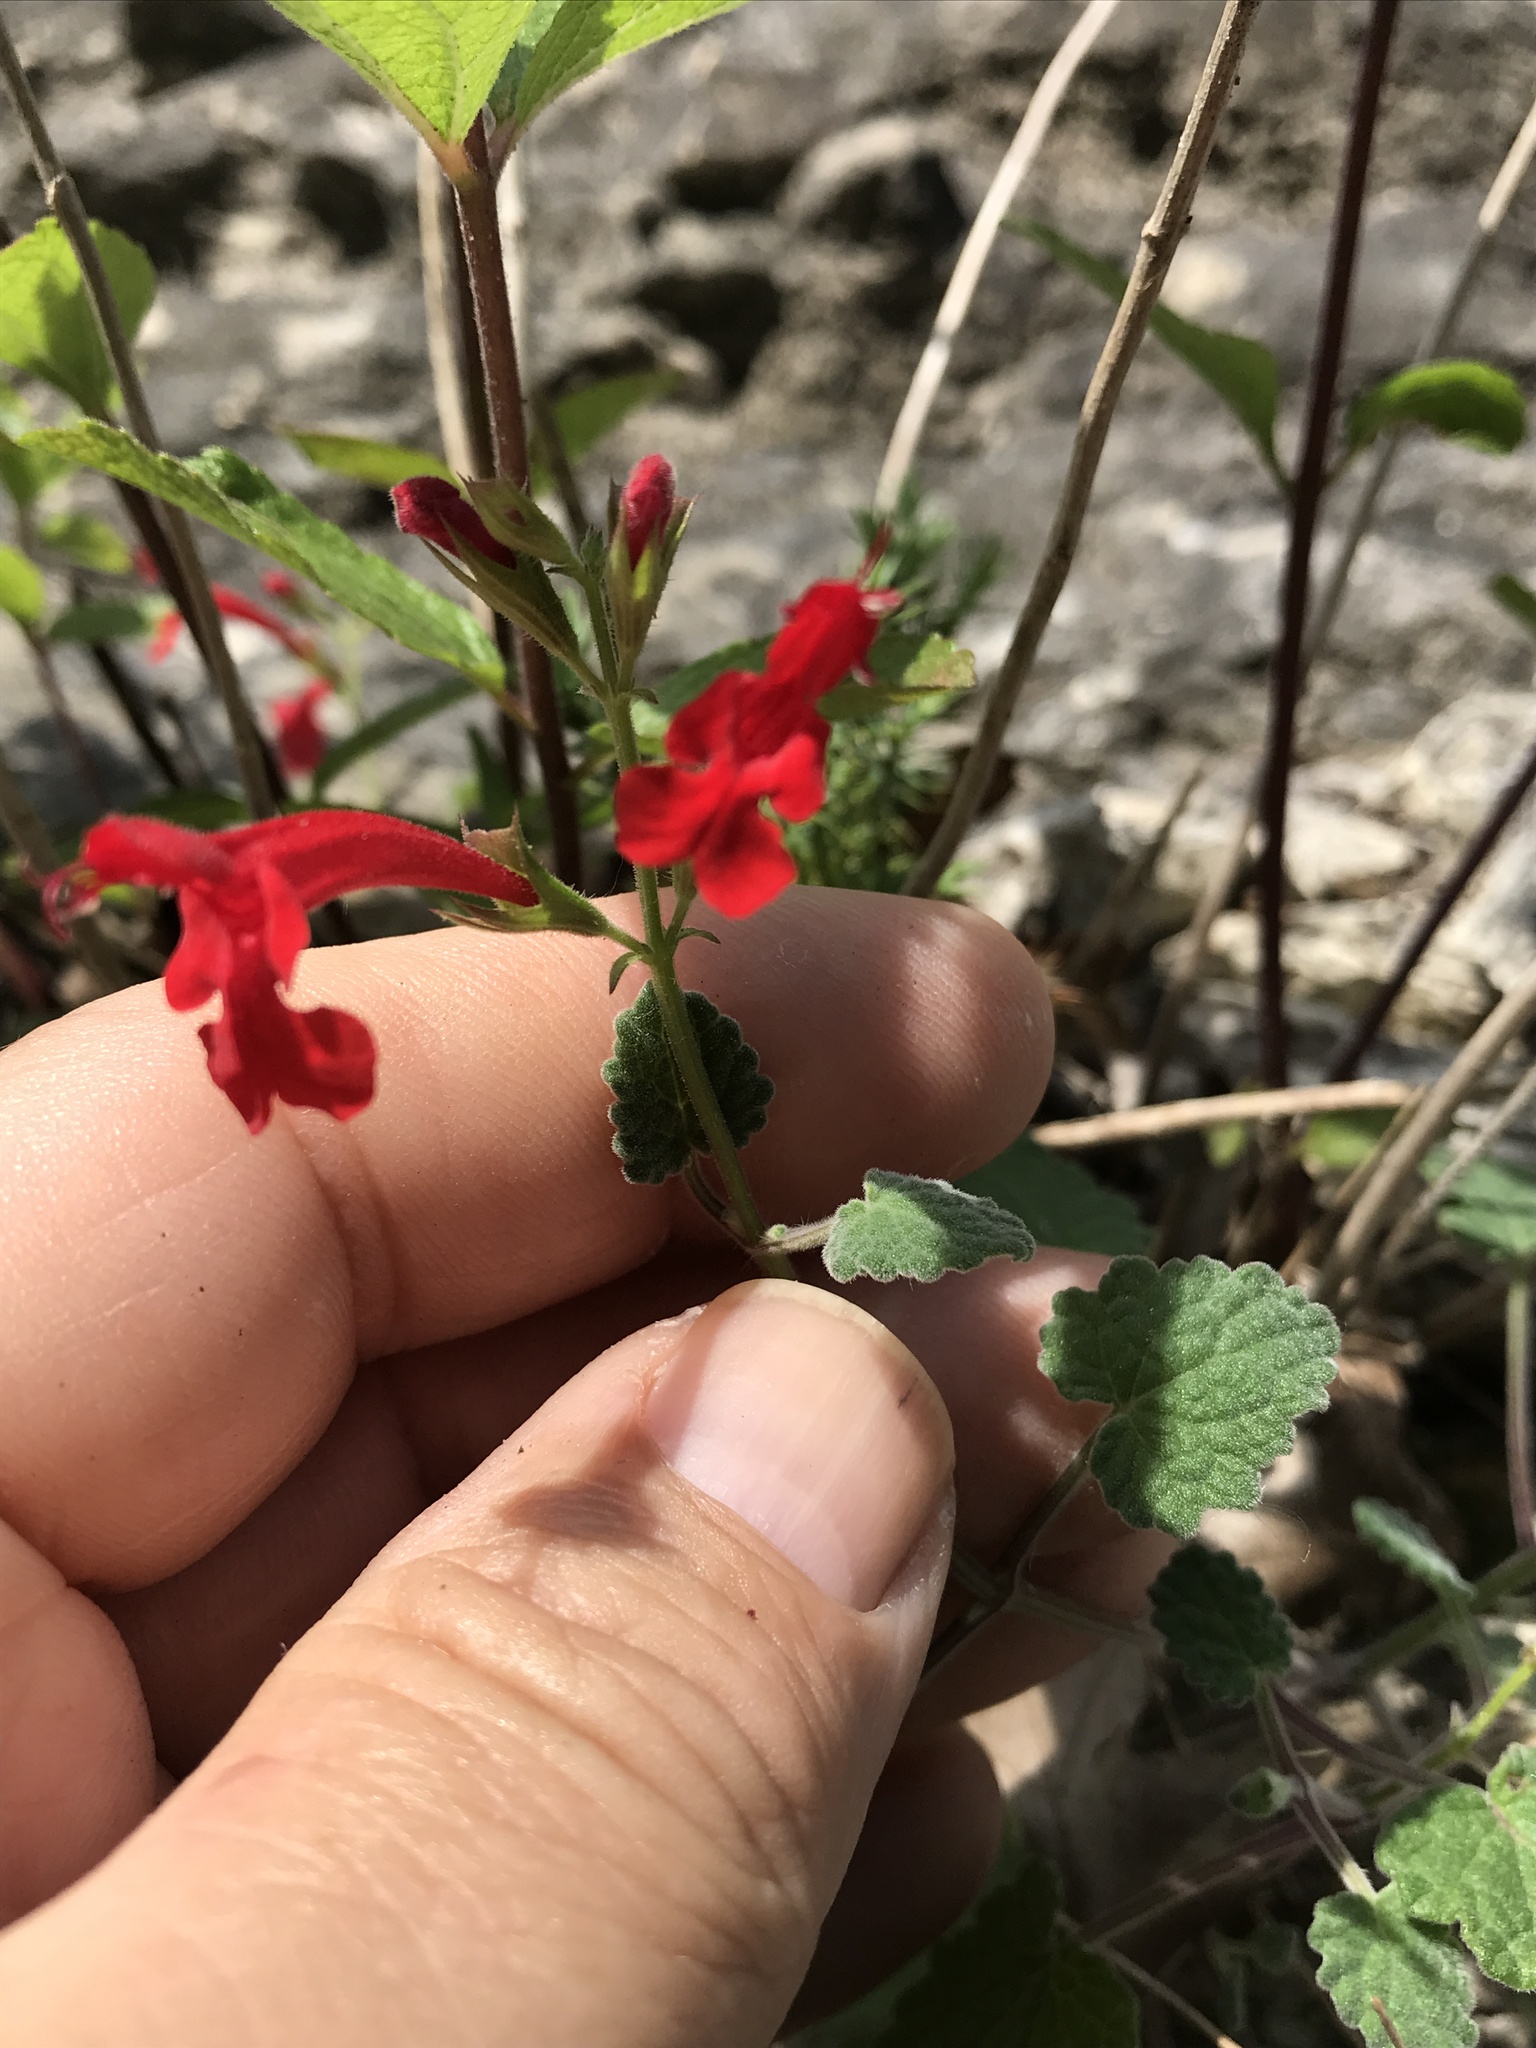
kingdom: Plantae
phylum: Tracheophyta
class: Magnoliopsida
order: Lamiales
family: Lamiaceae
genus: Salvia
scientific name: Salvia roemeriana
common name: Cedar sage
